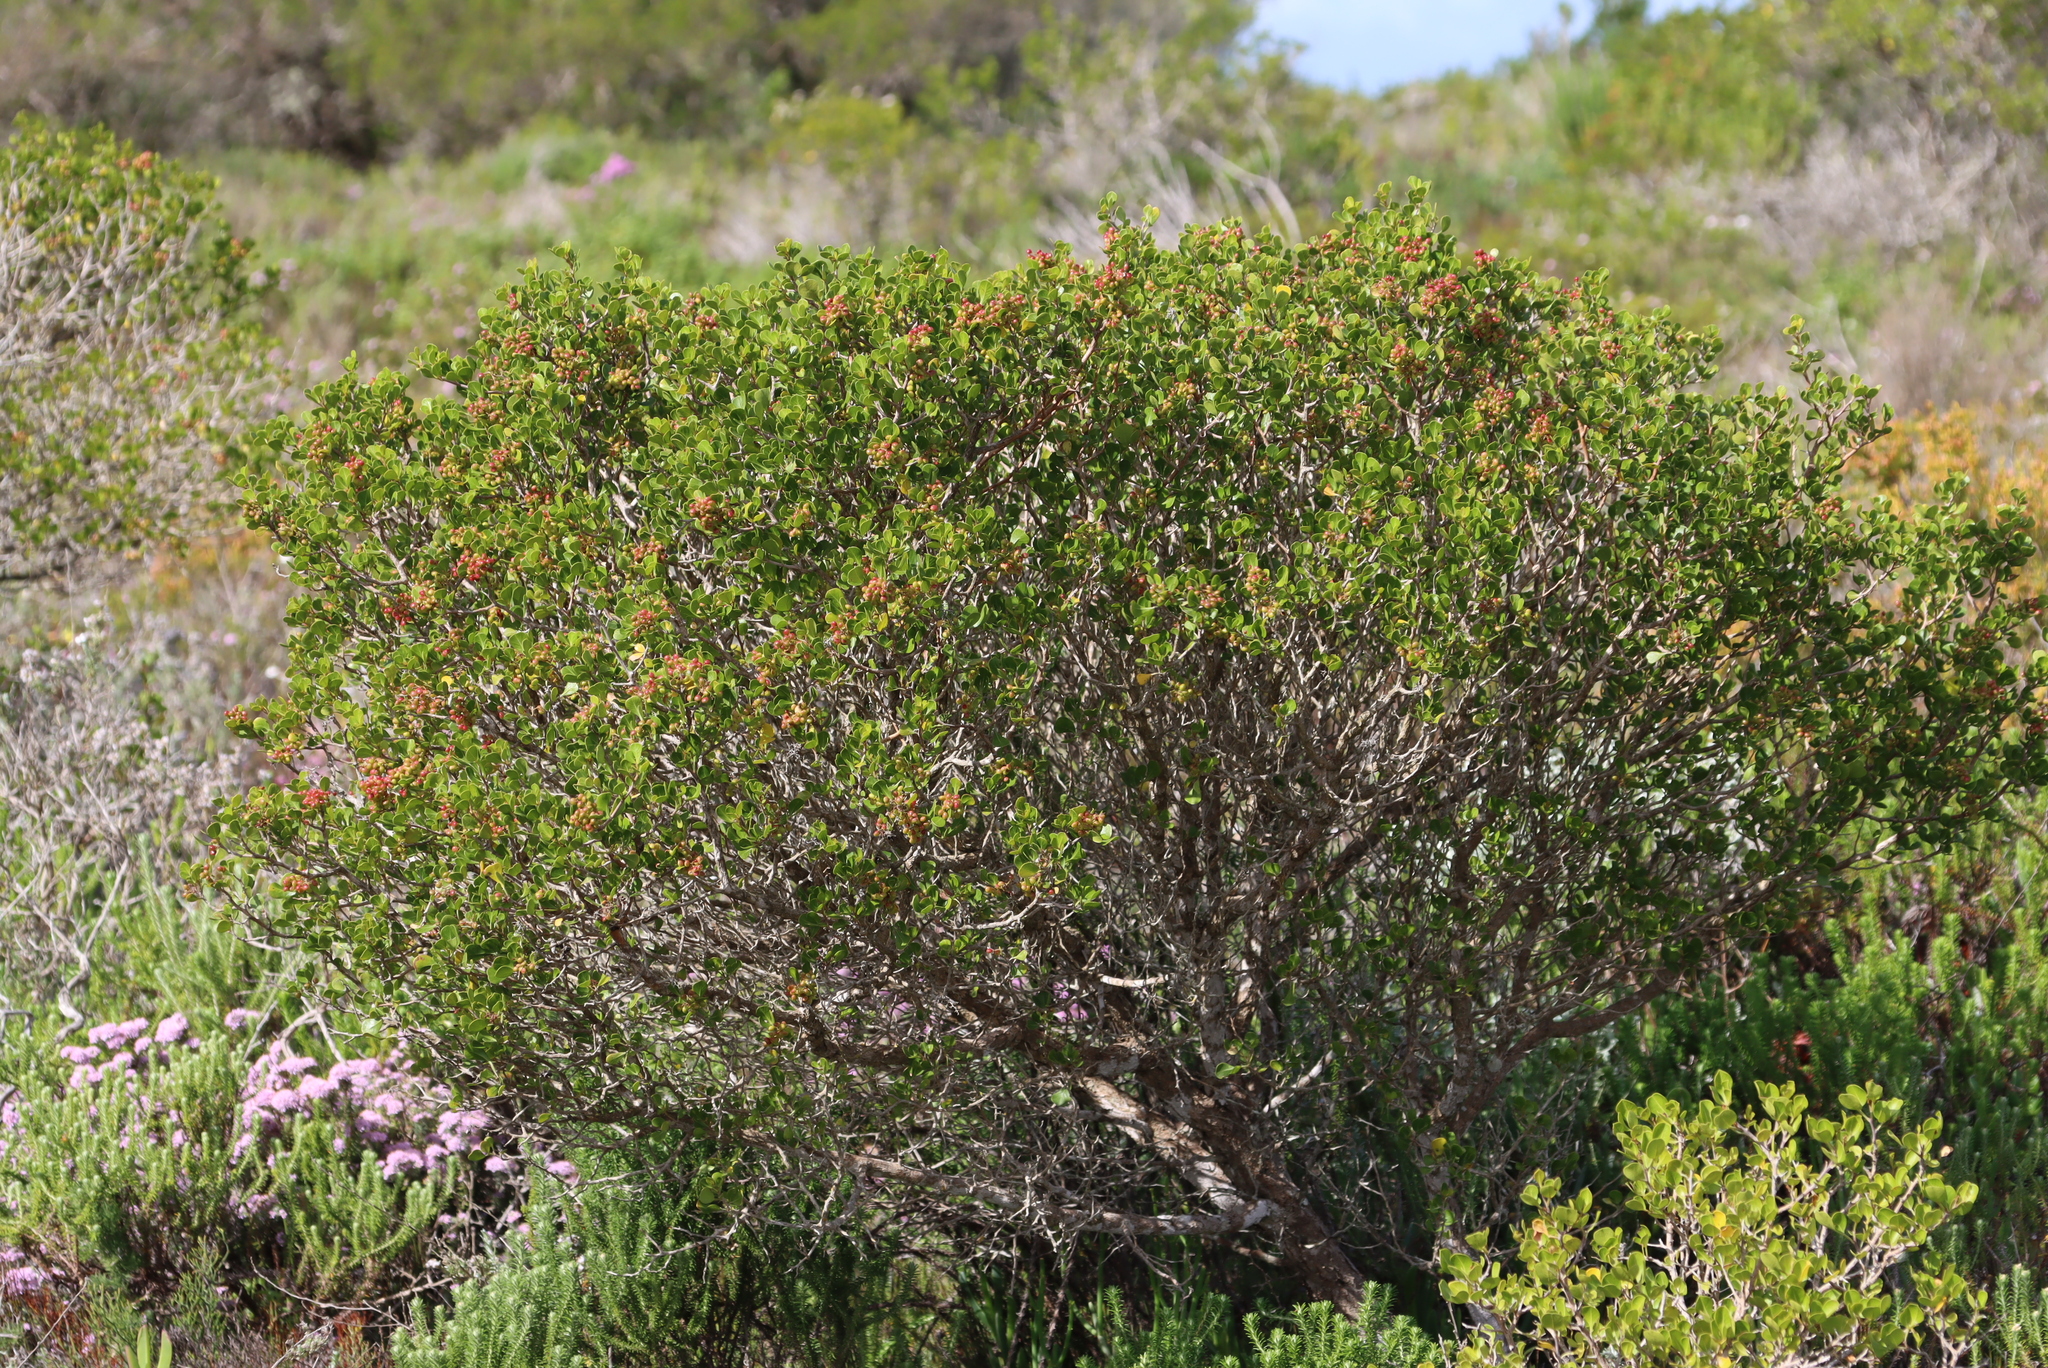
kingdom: Plantae
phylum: Tracheophyta
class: Magnoliopsida
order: Sapindales
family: Anacardiaceae
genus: Searsia
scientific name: Searsia glauca
